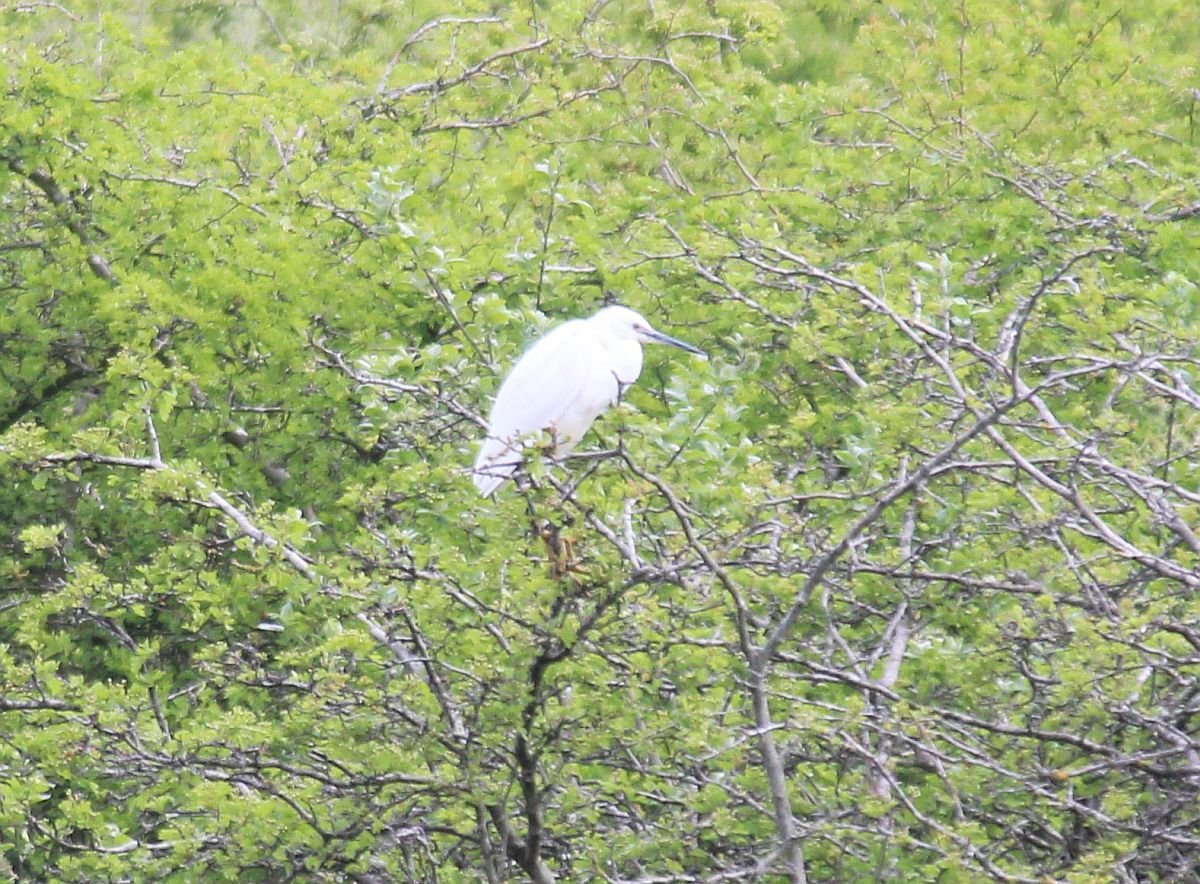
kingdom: Animalia
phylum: Chordata
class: Aves
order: Pelecaniformes
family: Ardeidae
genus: Egretta
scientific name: Egretta garzetta
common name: Little egret
